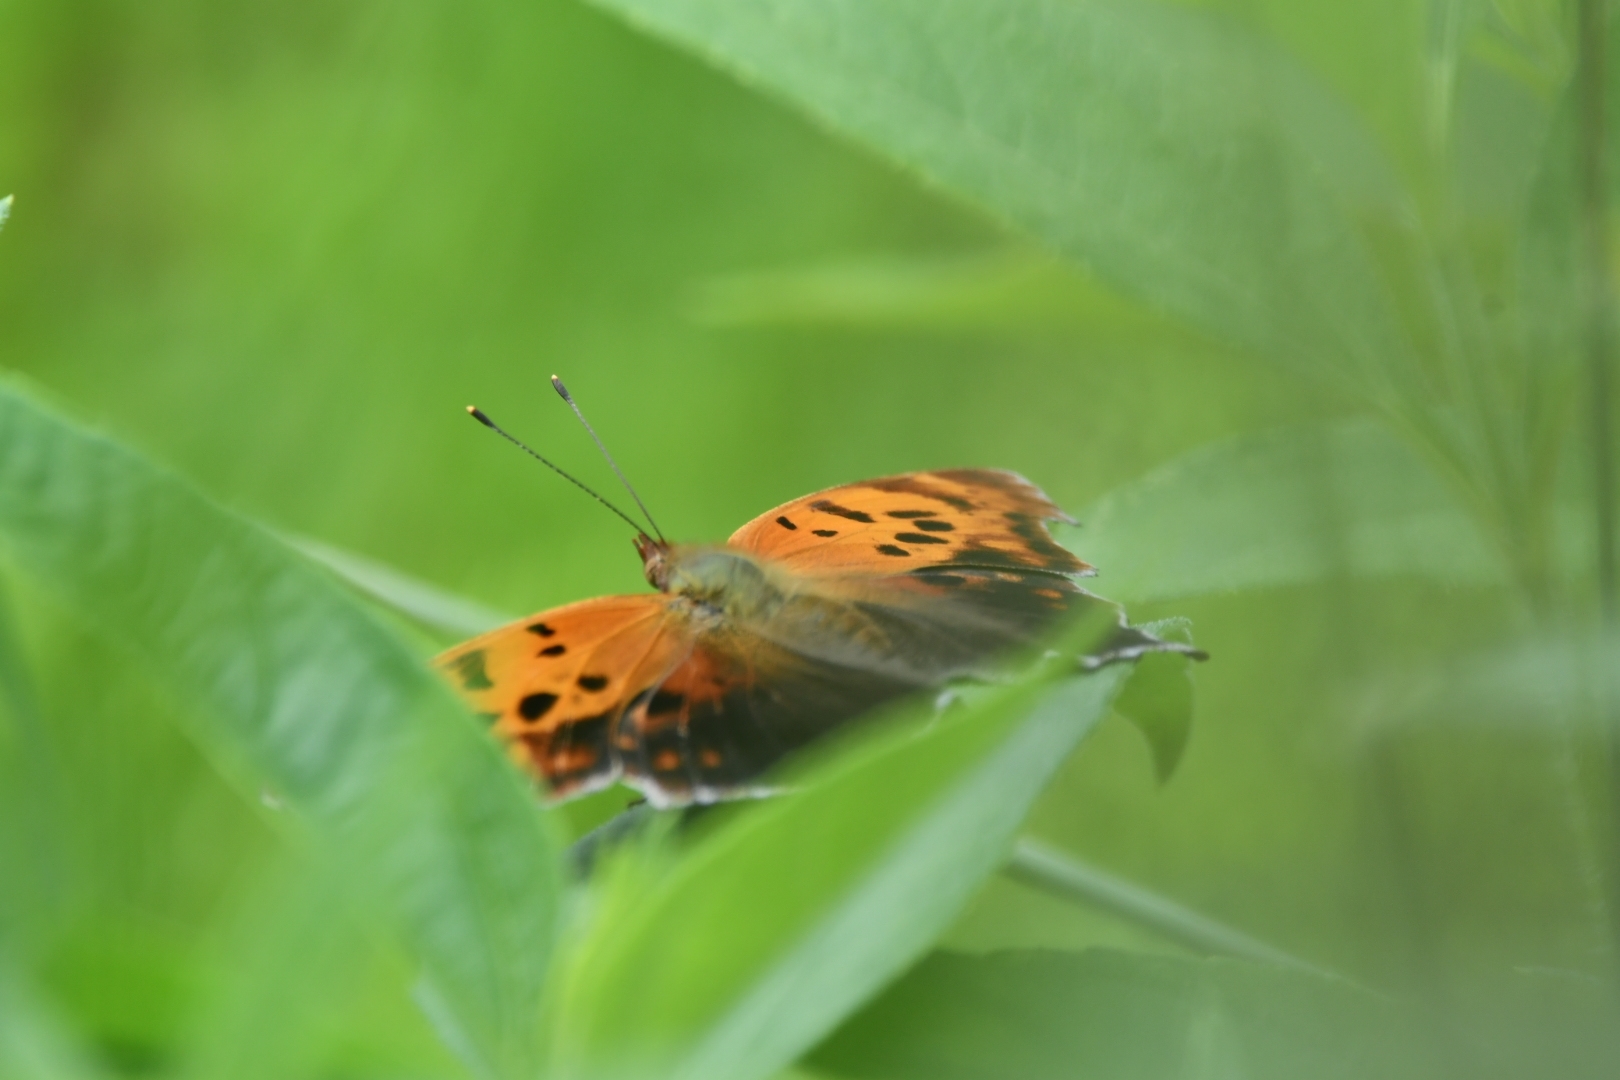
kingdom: Animalia
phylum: Arthropoda
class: Insecta
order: Lepidoptera
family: Nymphalidae
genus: Polygonia
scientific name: Polygonia interrogationis
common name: Question mark
